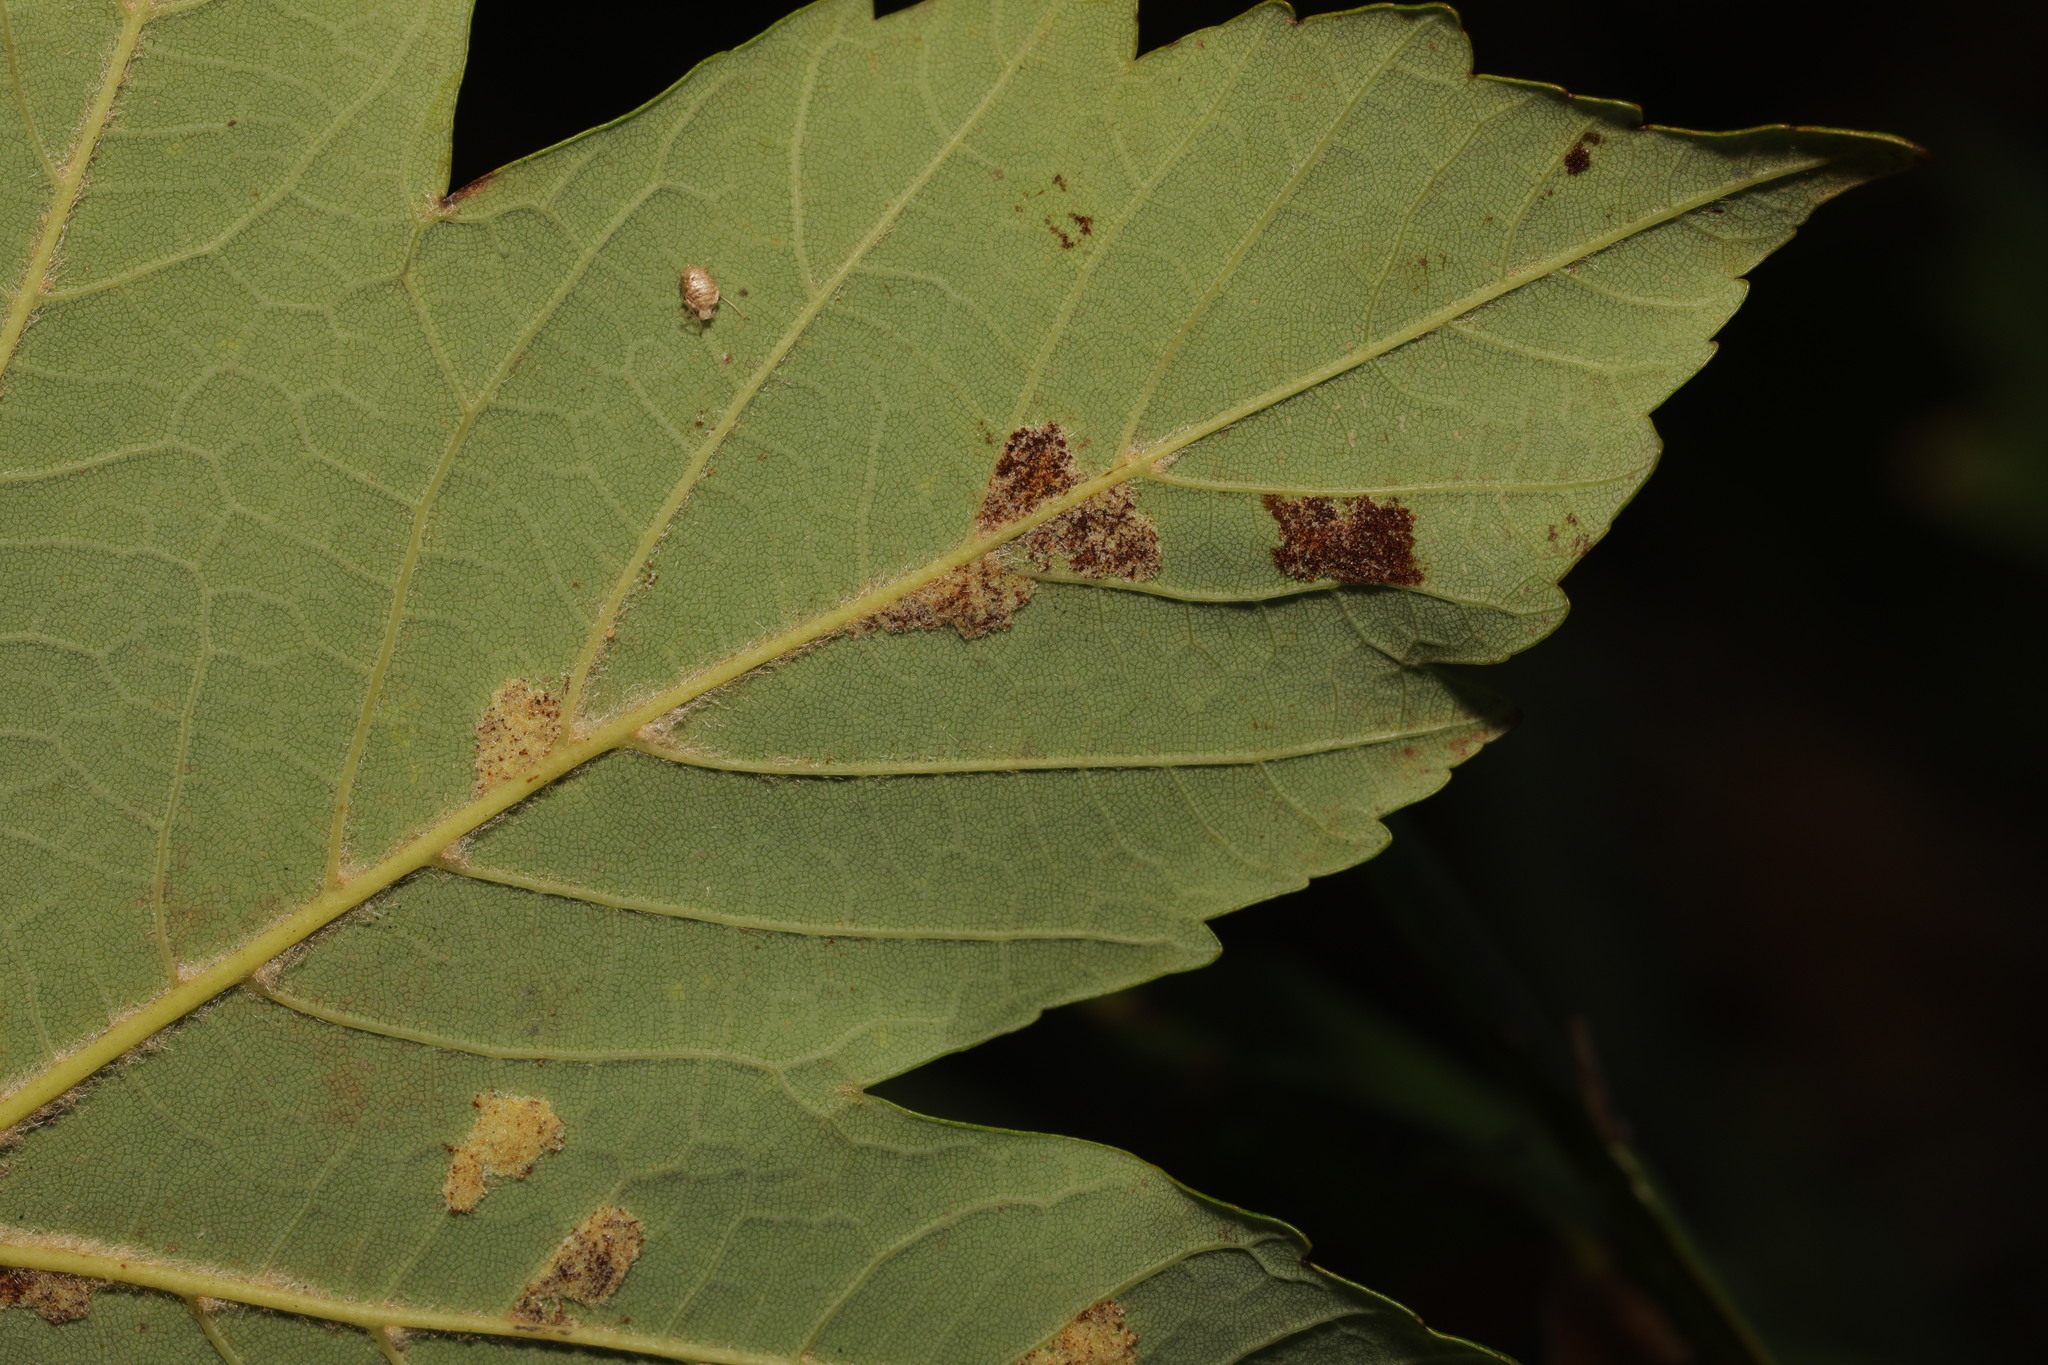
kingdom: Animalia
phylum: Arthropoda
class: Arachnida
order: Trombidiformes
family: Eriophyidae
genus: Aceria
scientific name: Aceria pseudoplatani
